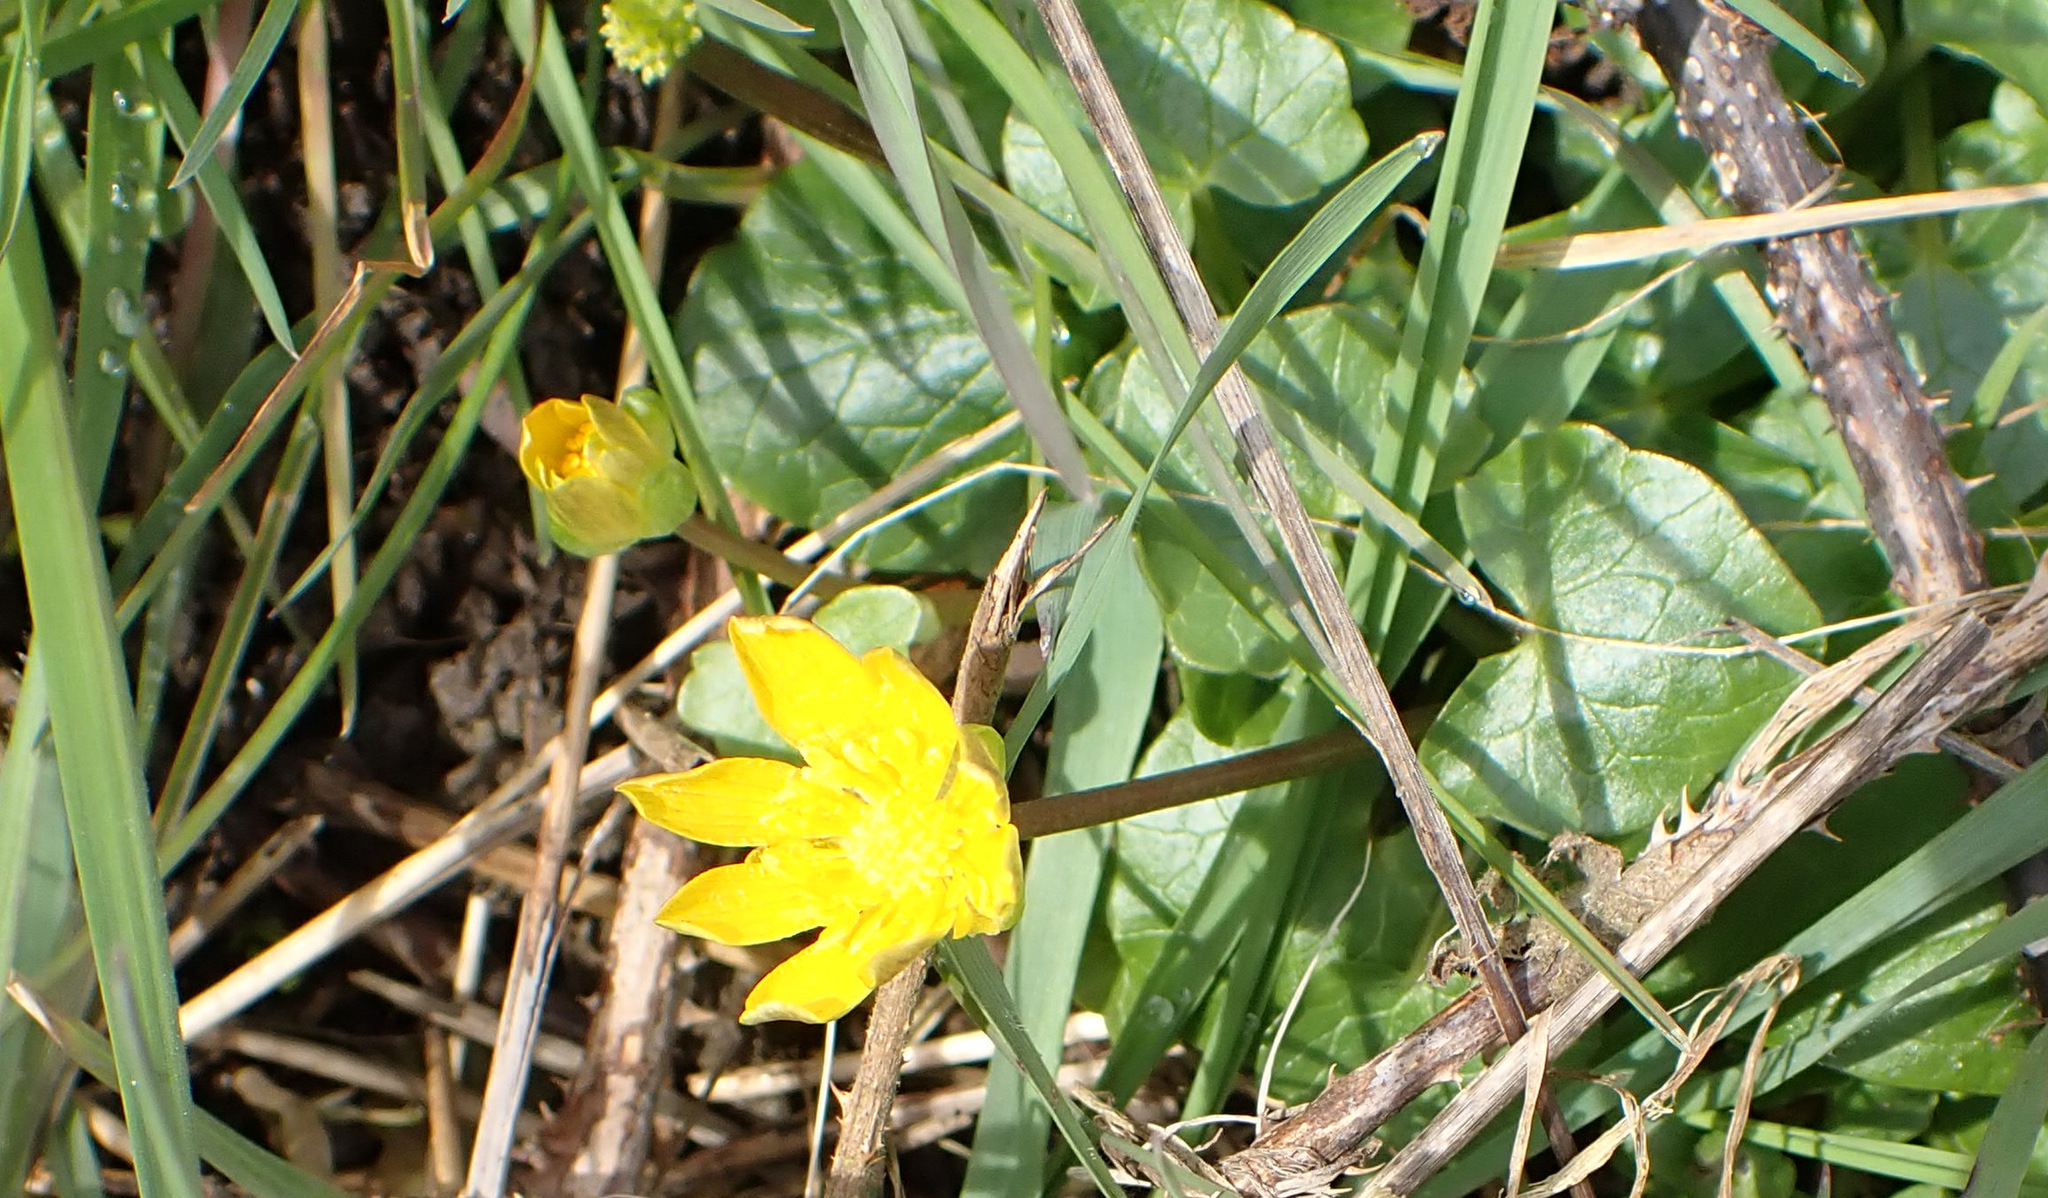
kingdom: Plantae
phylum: Tracheophyta
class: Magnoliopsida
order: Ranunculales
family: Ranunculaceae
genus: Ficaria
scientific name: Ficaria verna
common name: Lesser celandine
